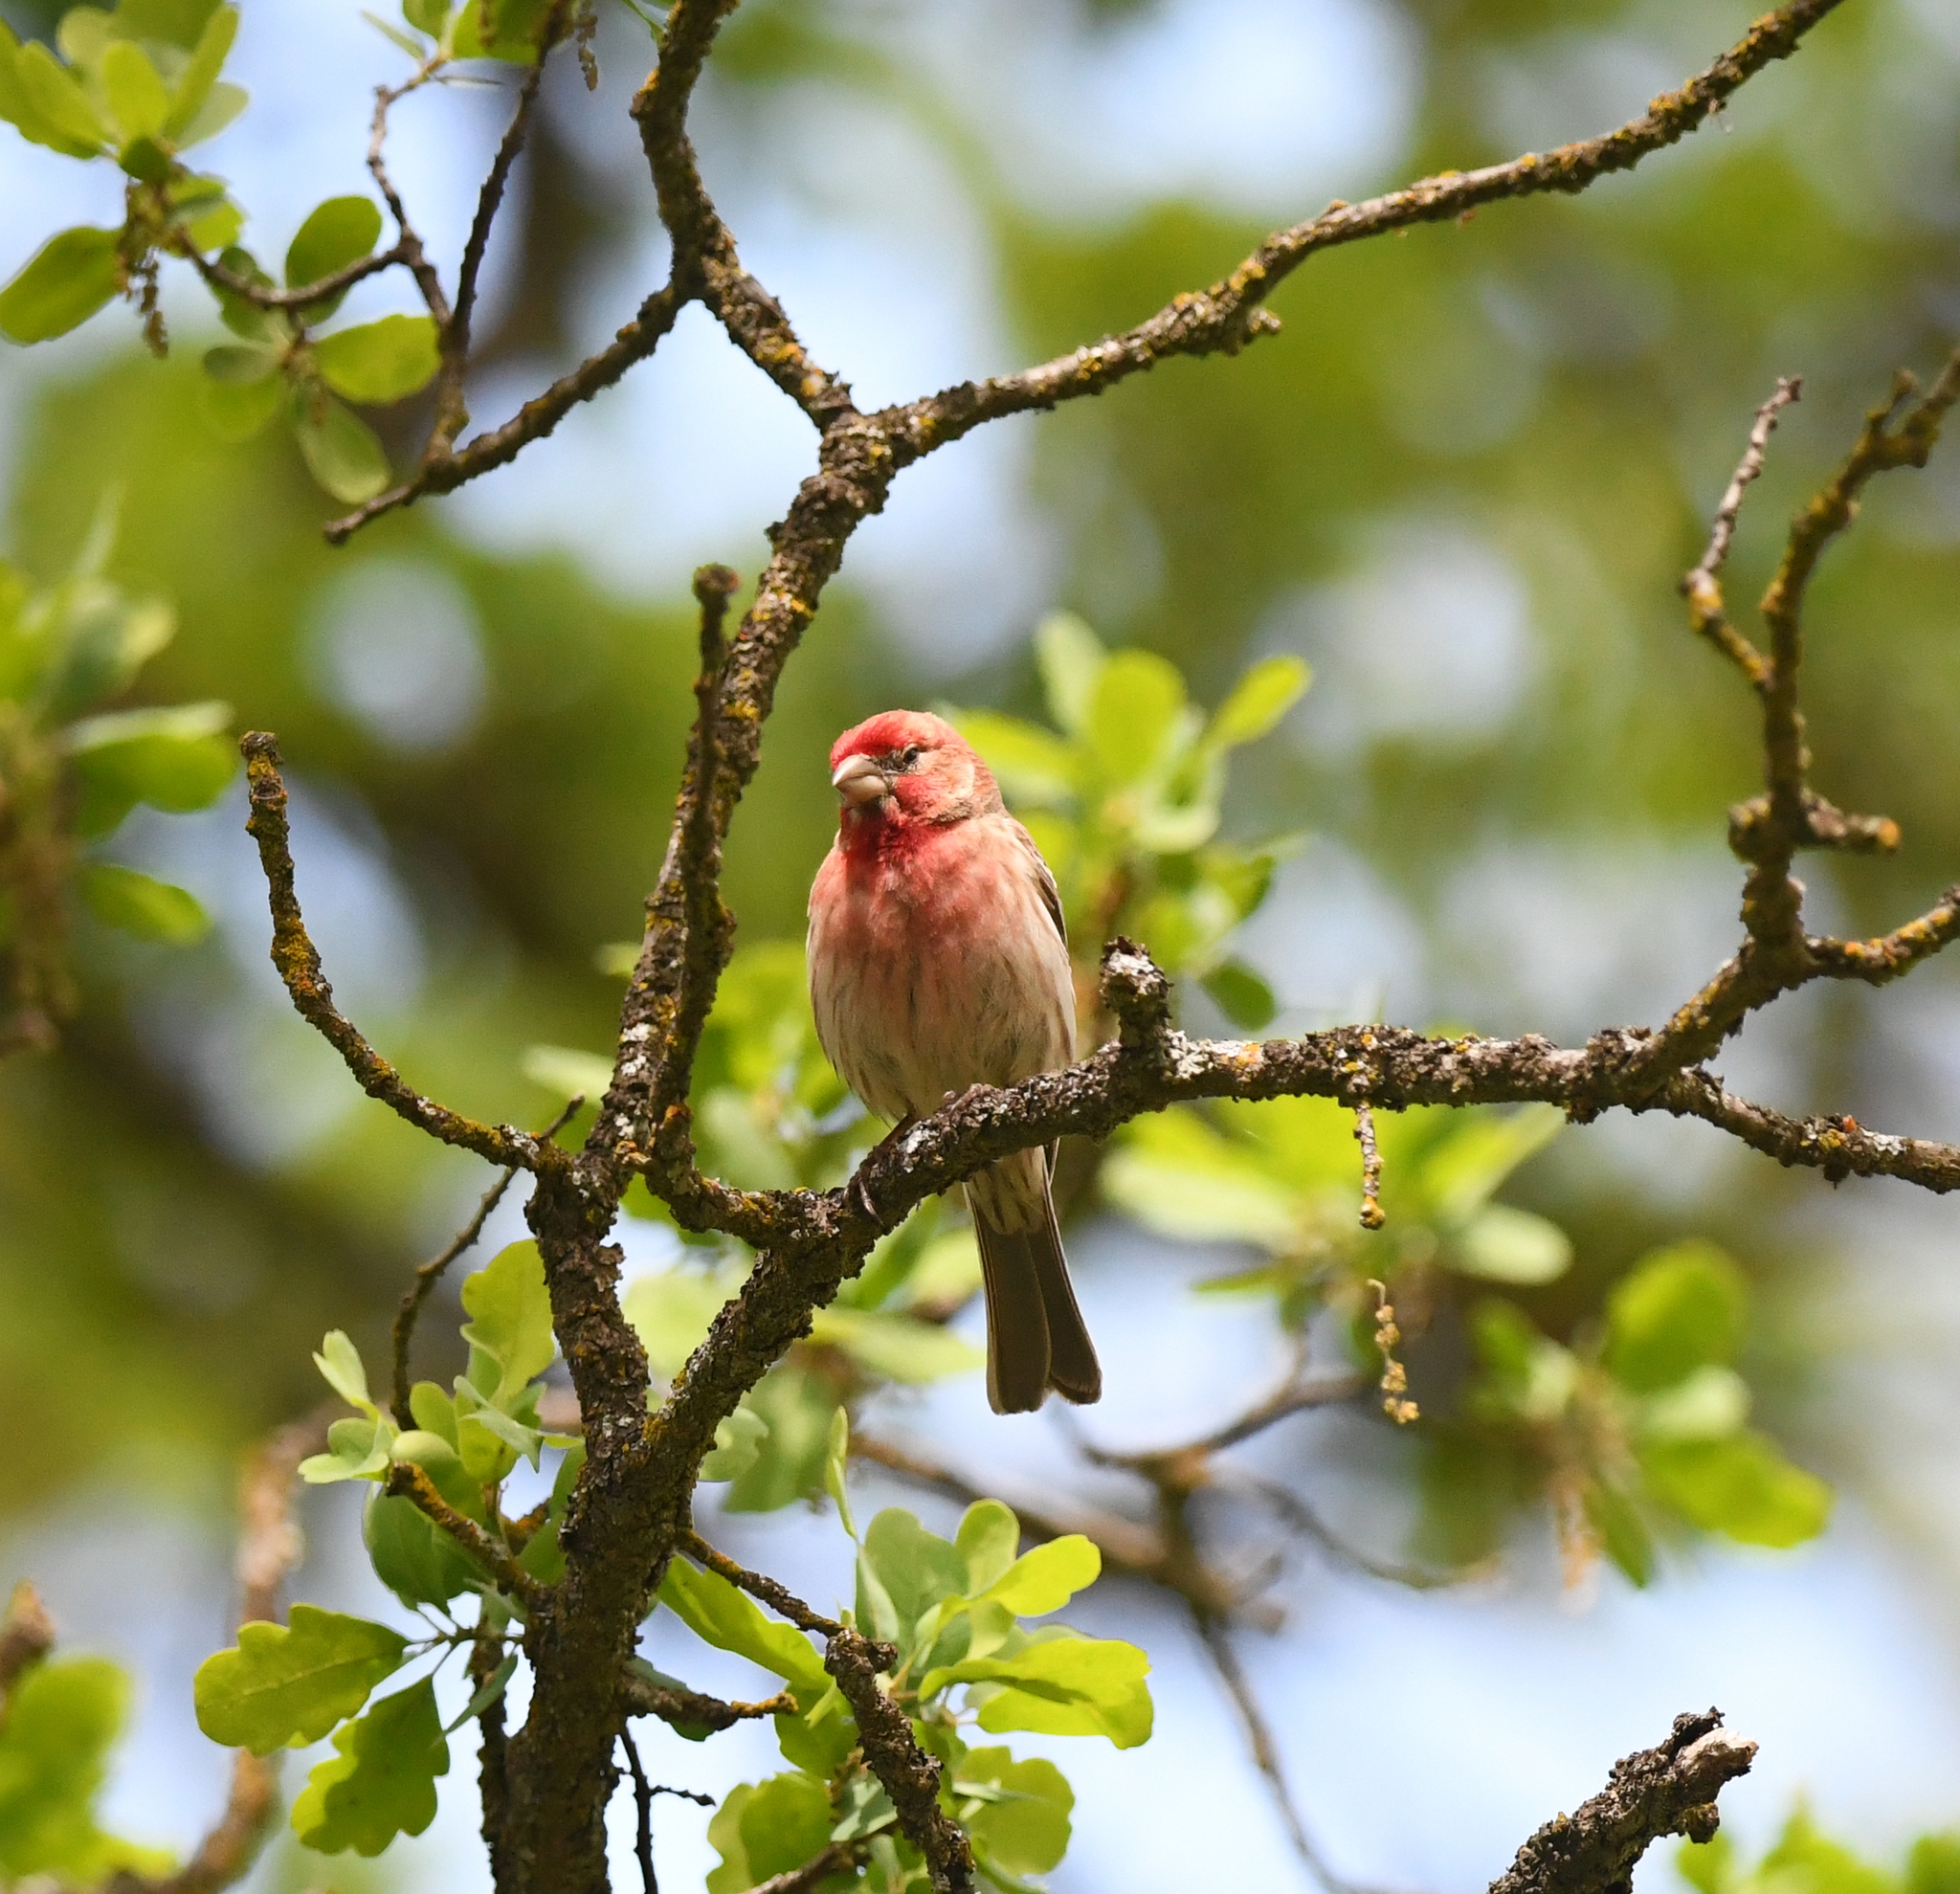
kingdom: Animalia
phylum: Chordata
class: Aves
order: Passeriformes
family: Fringillidae
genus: Haemorhous
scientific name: Haemorhous mexicanus
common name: House finch
